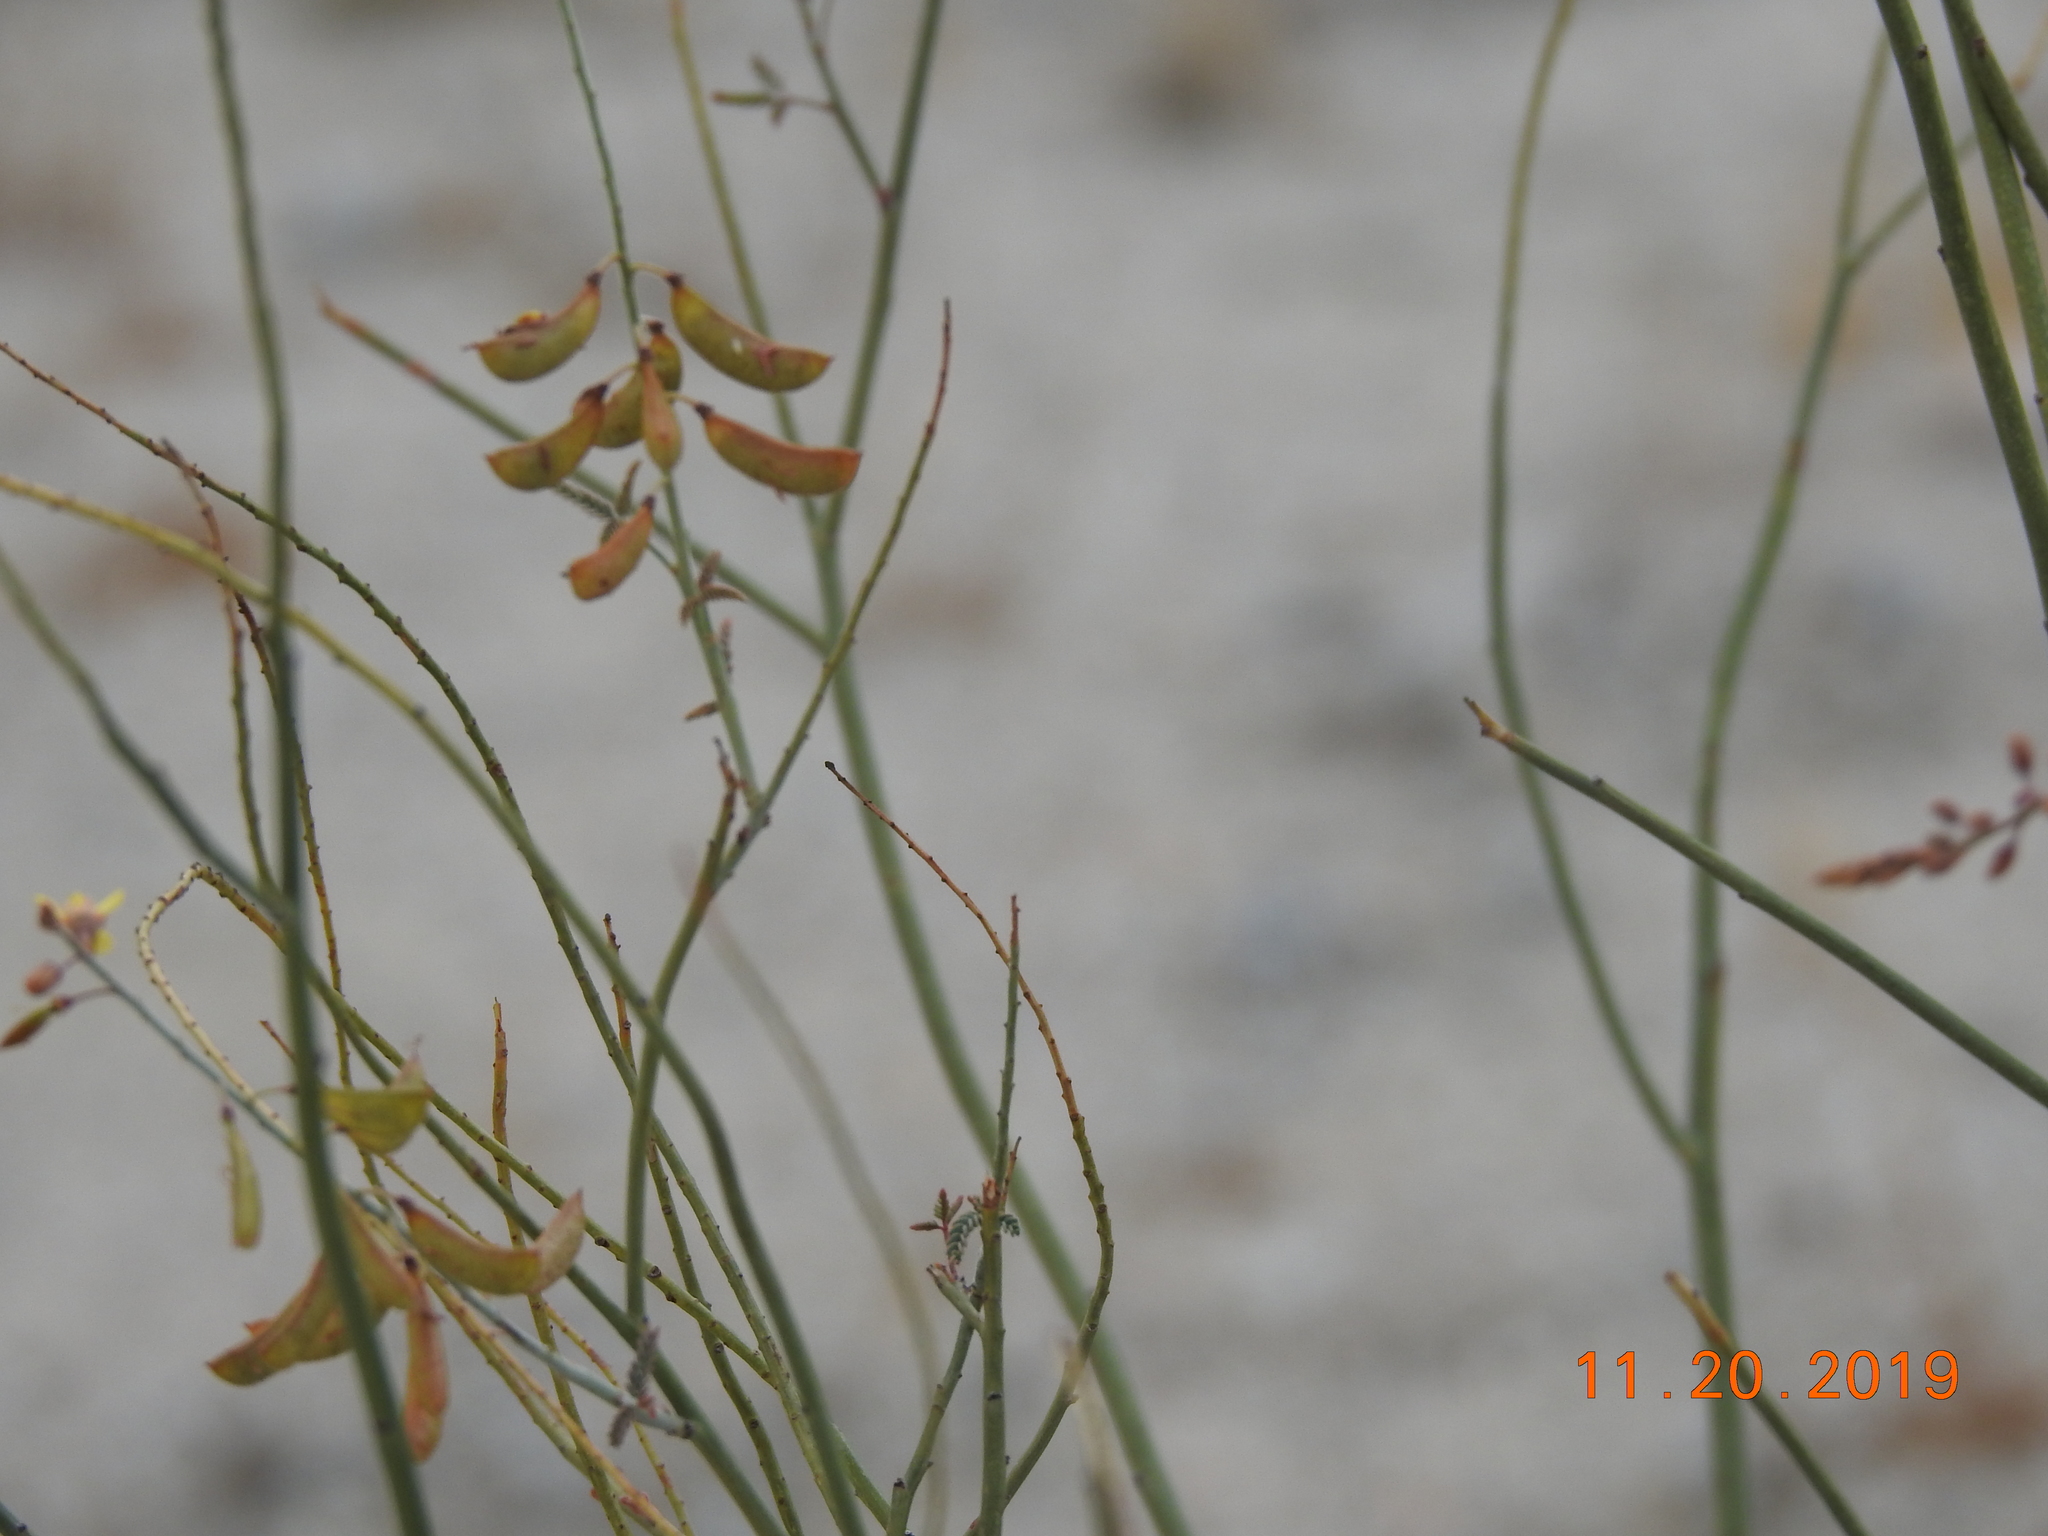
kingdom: Plantae
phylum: Tracheophyta
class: Magnoliopsida
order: Fabales
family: Fabaceae
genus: Hoffmannseggia
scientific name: Hoffmannseggia microphylla
